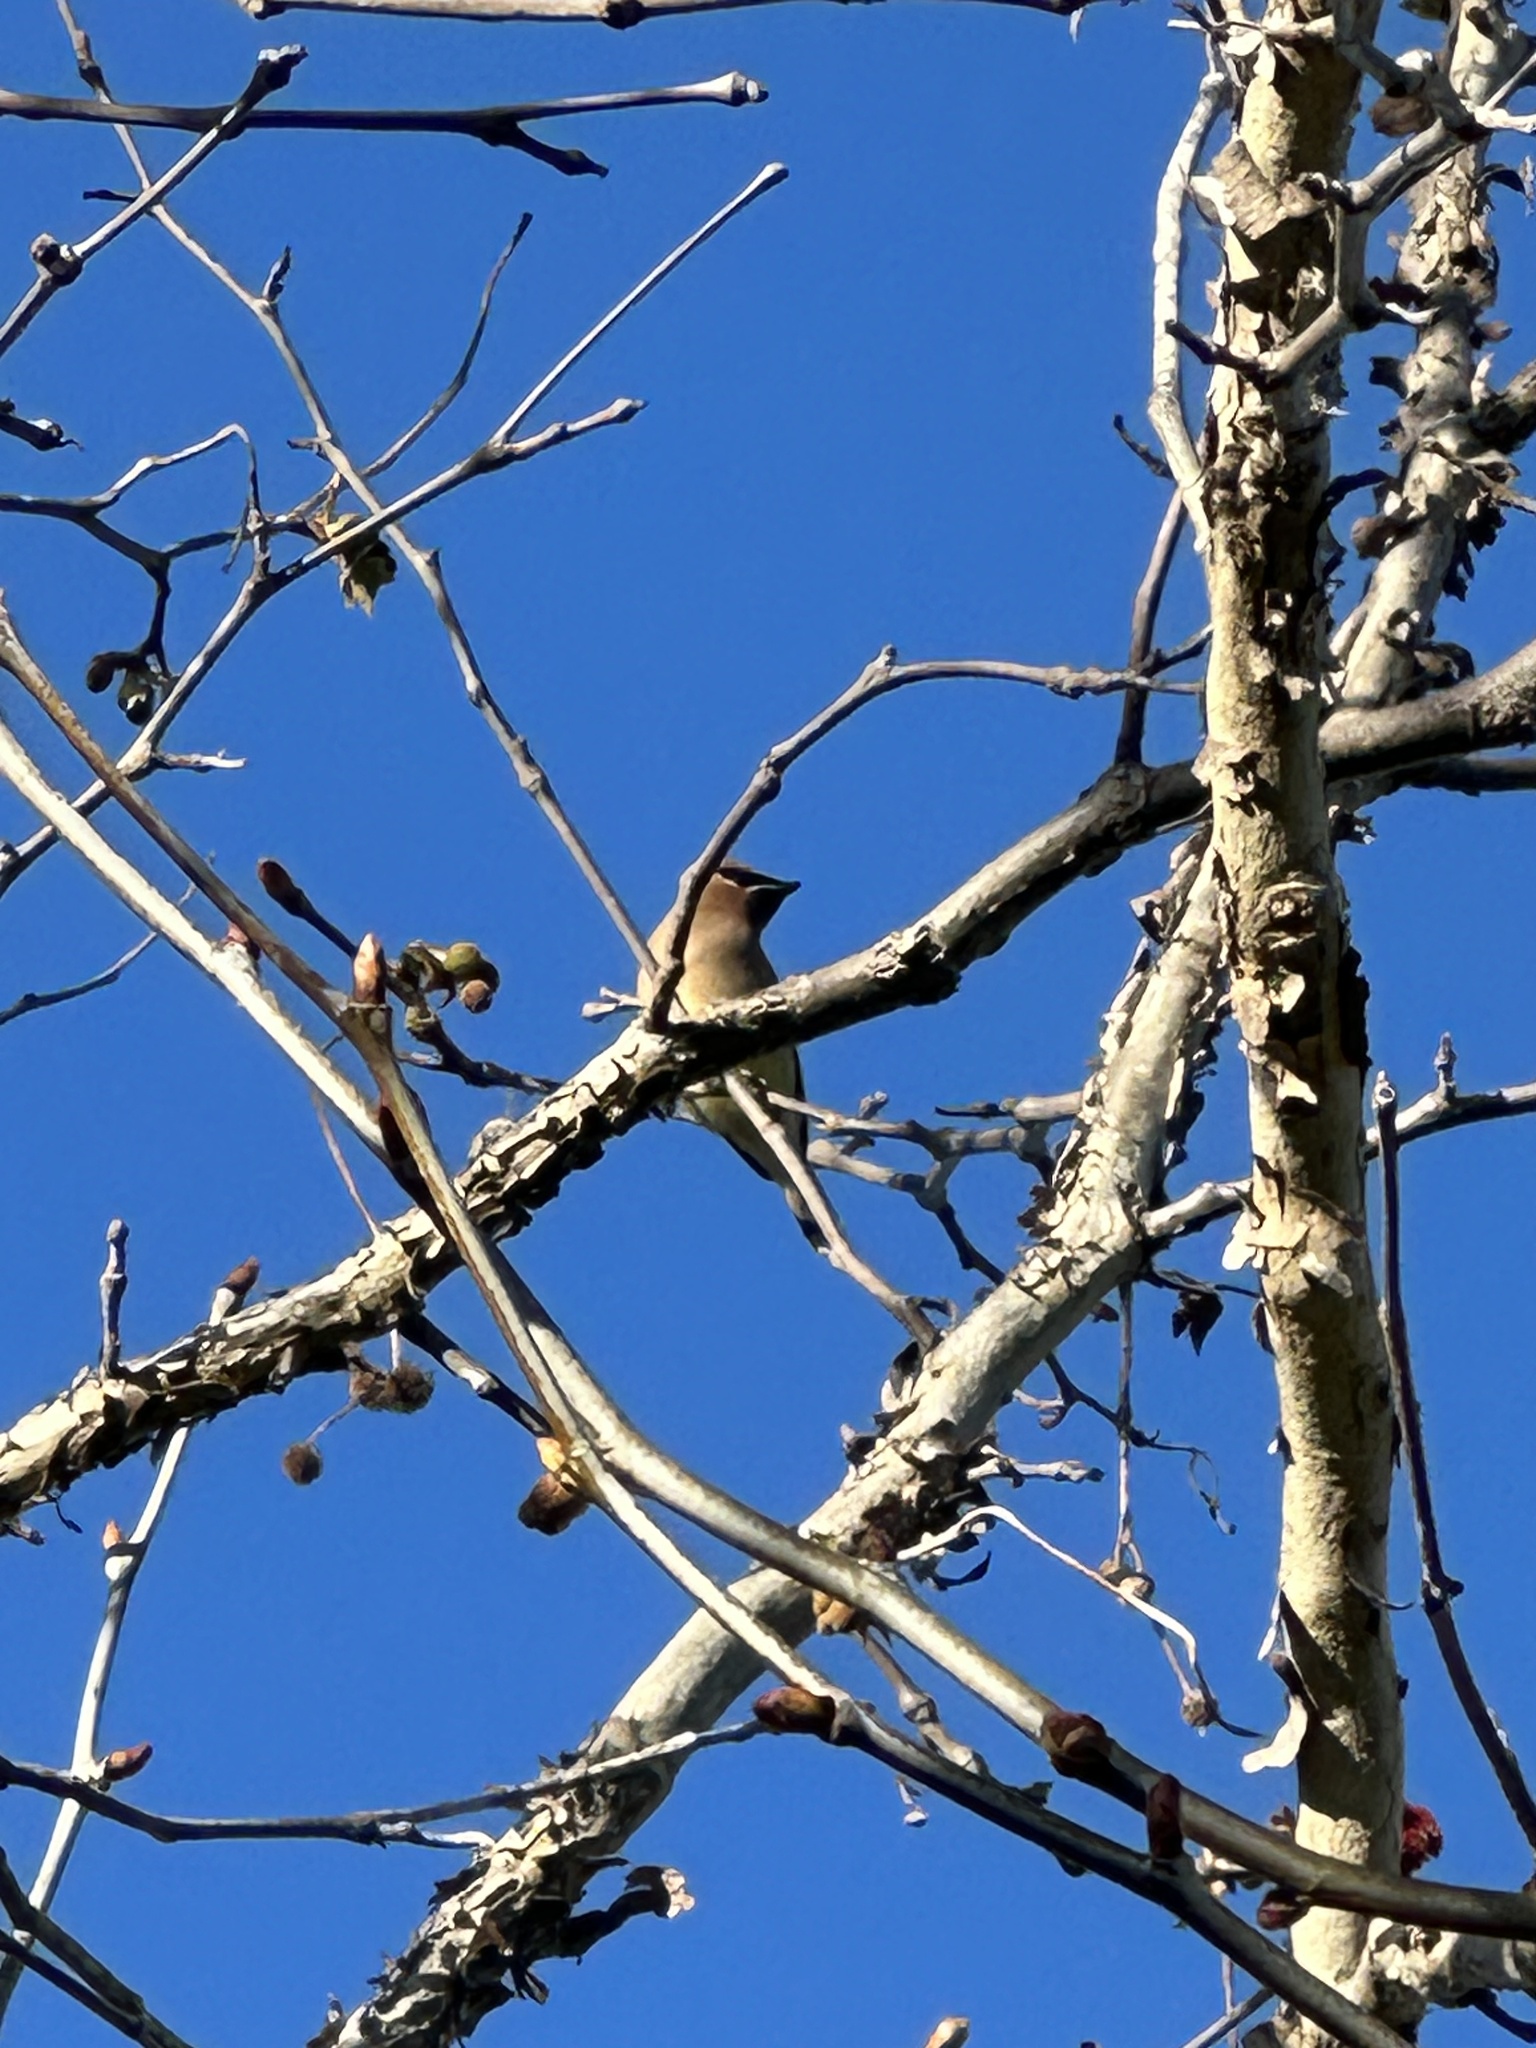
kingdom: Animalia
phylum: Chordata
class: Aves
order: Passeriformes
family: Bombycillidae
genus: Bombycilla
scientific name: Bombycilla cedrorum
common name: Cedar waxwing
